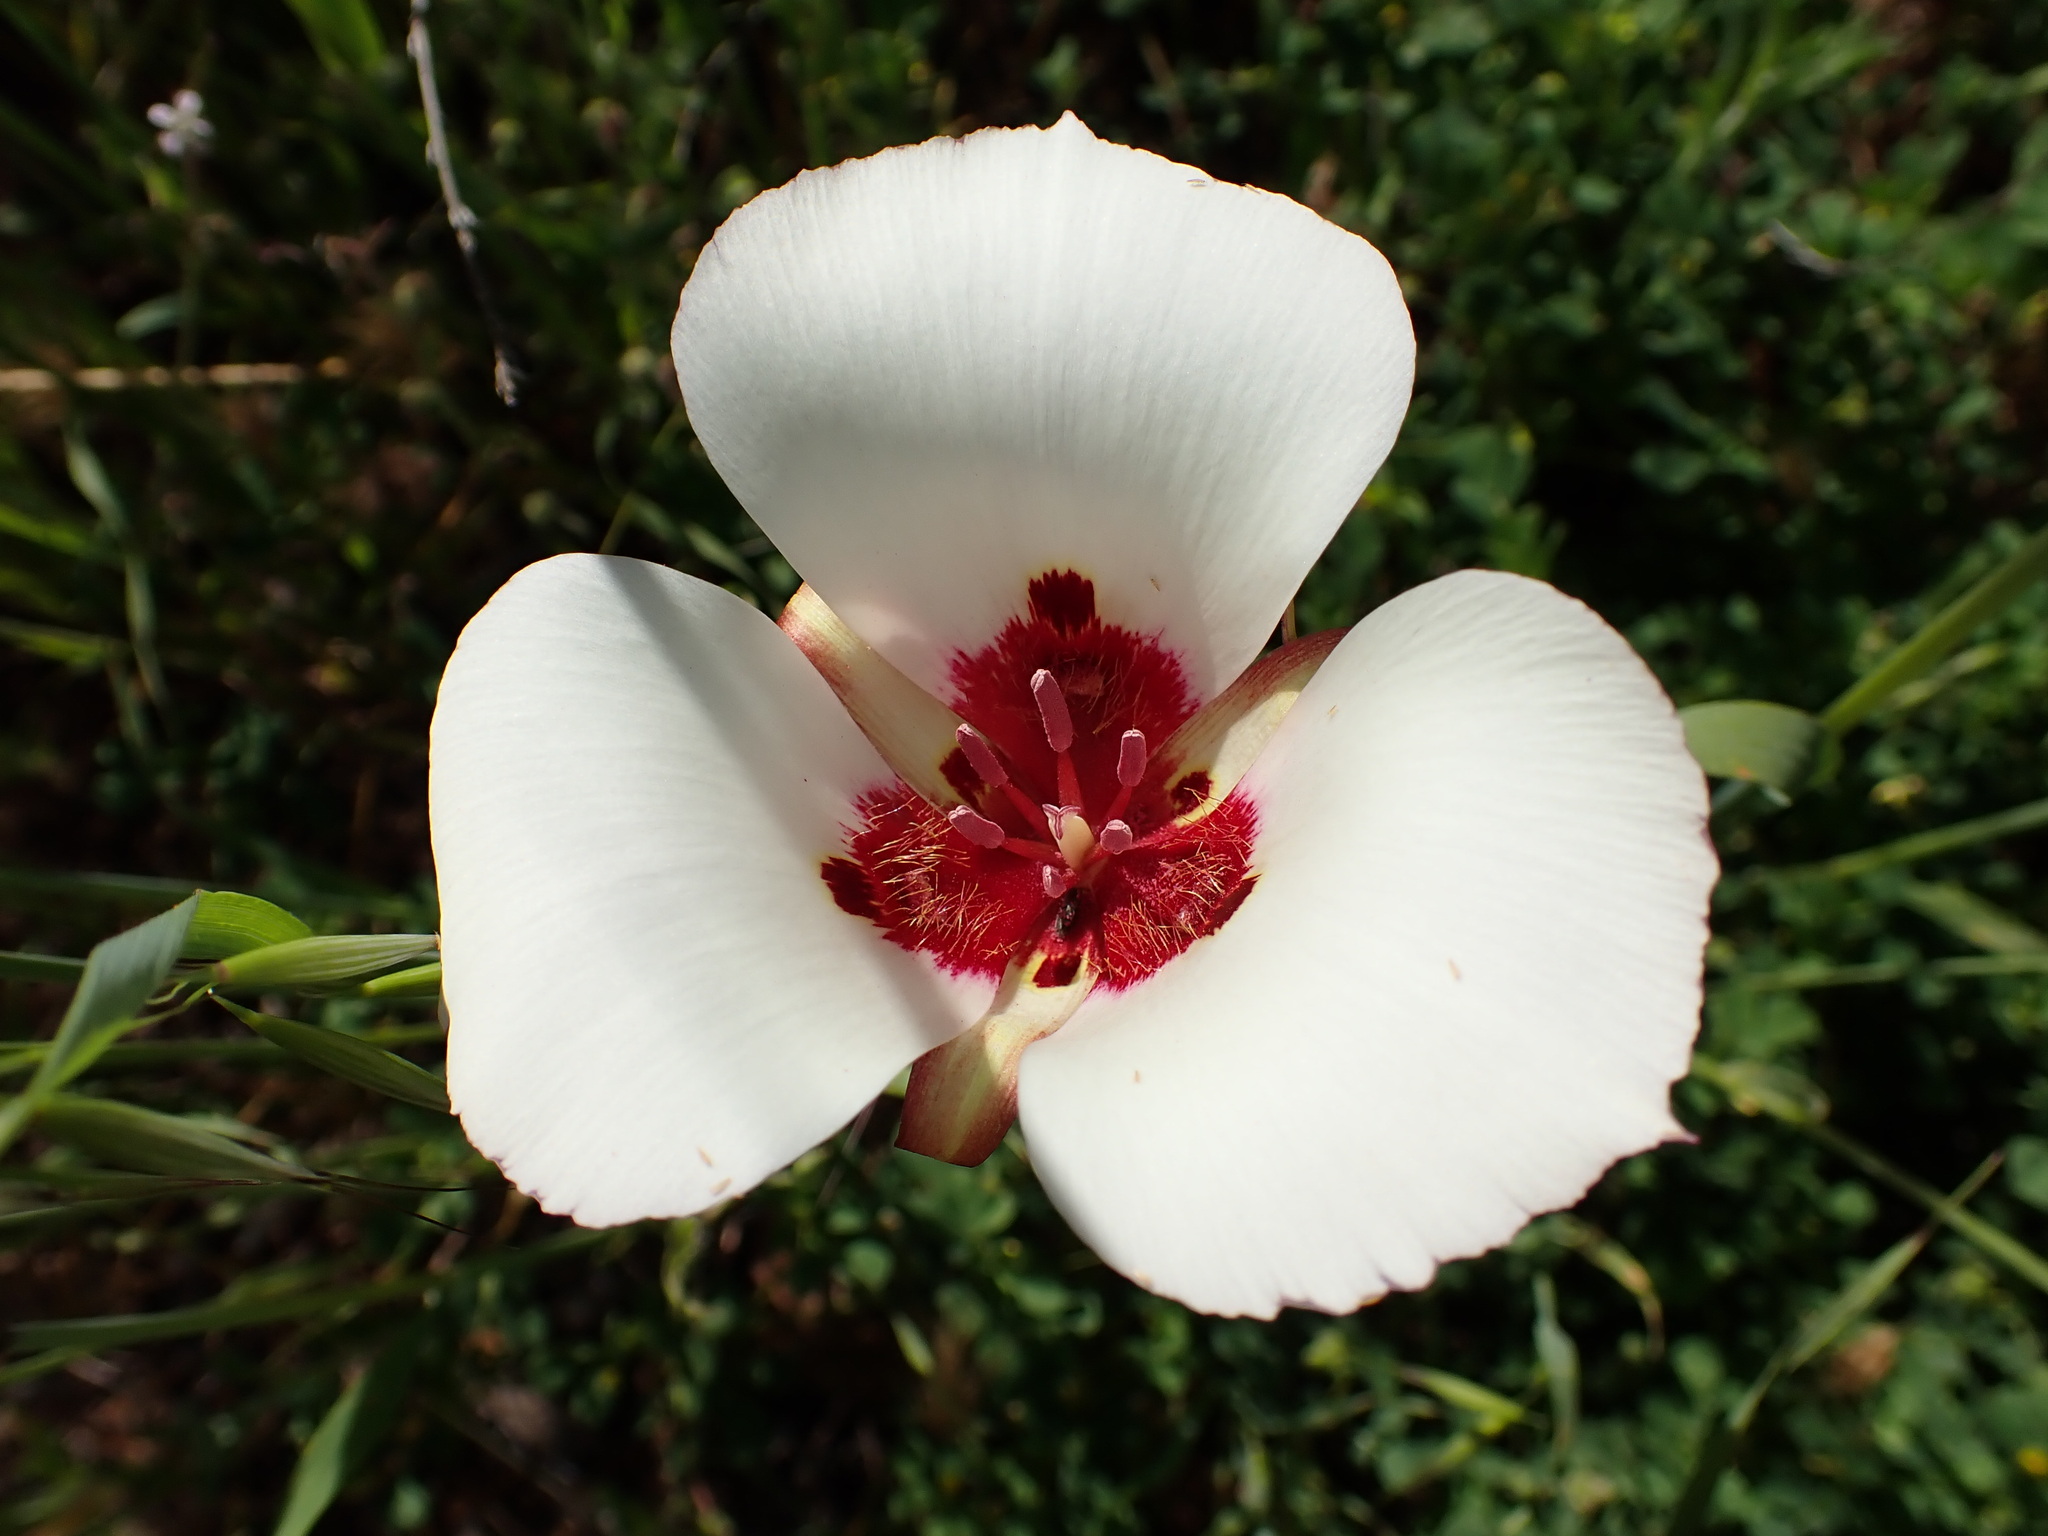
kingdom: Plantae
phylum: Tracheophyta
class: Liliopsida
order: Liliales
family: Liliaceae
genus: Calochortus
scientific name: Calochortus simulans
